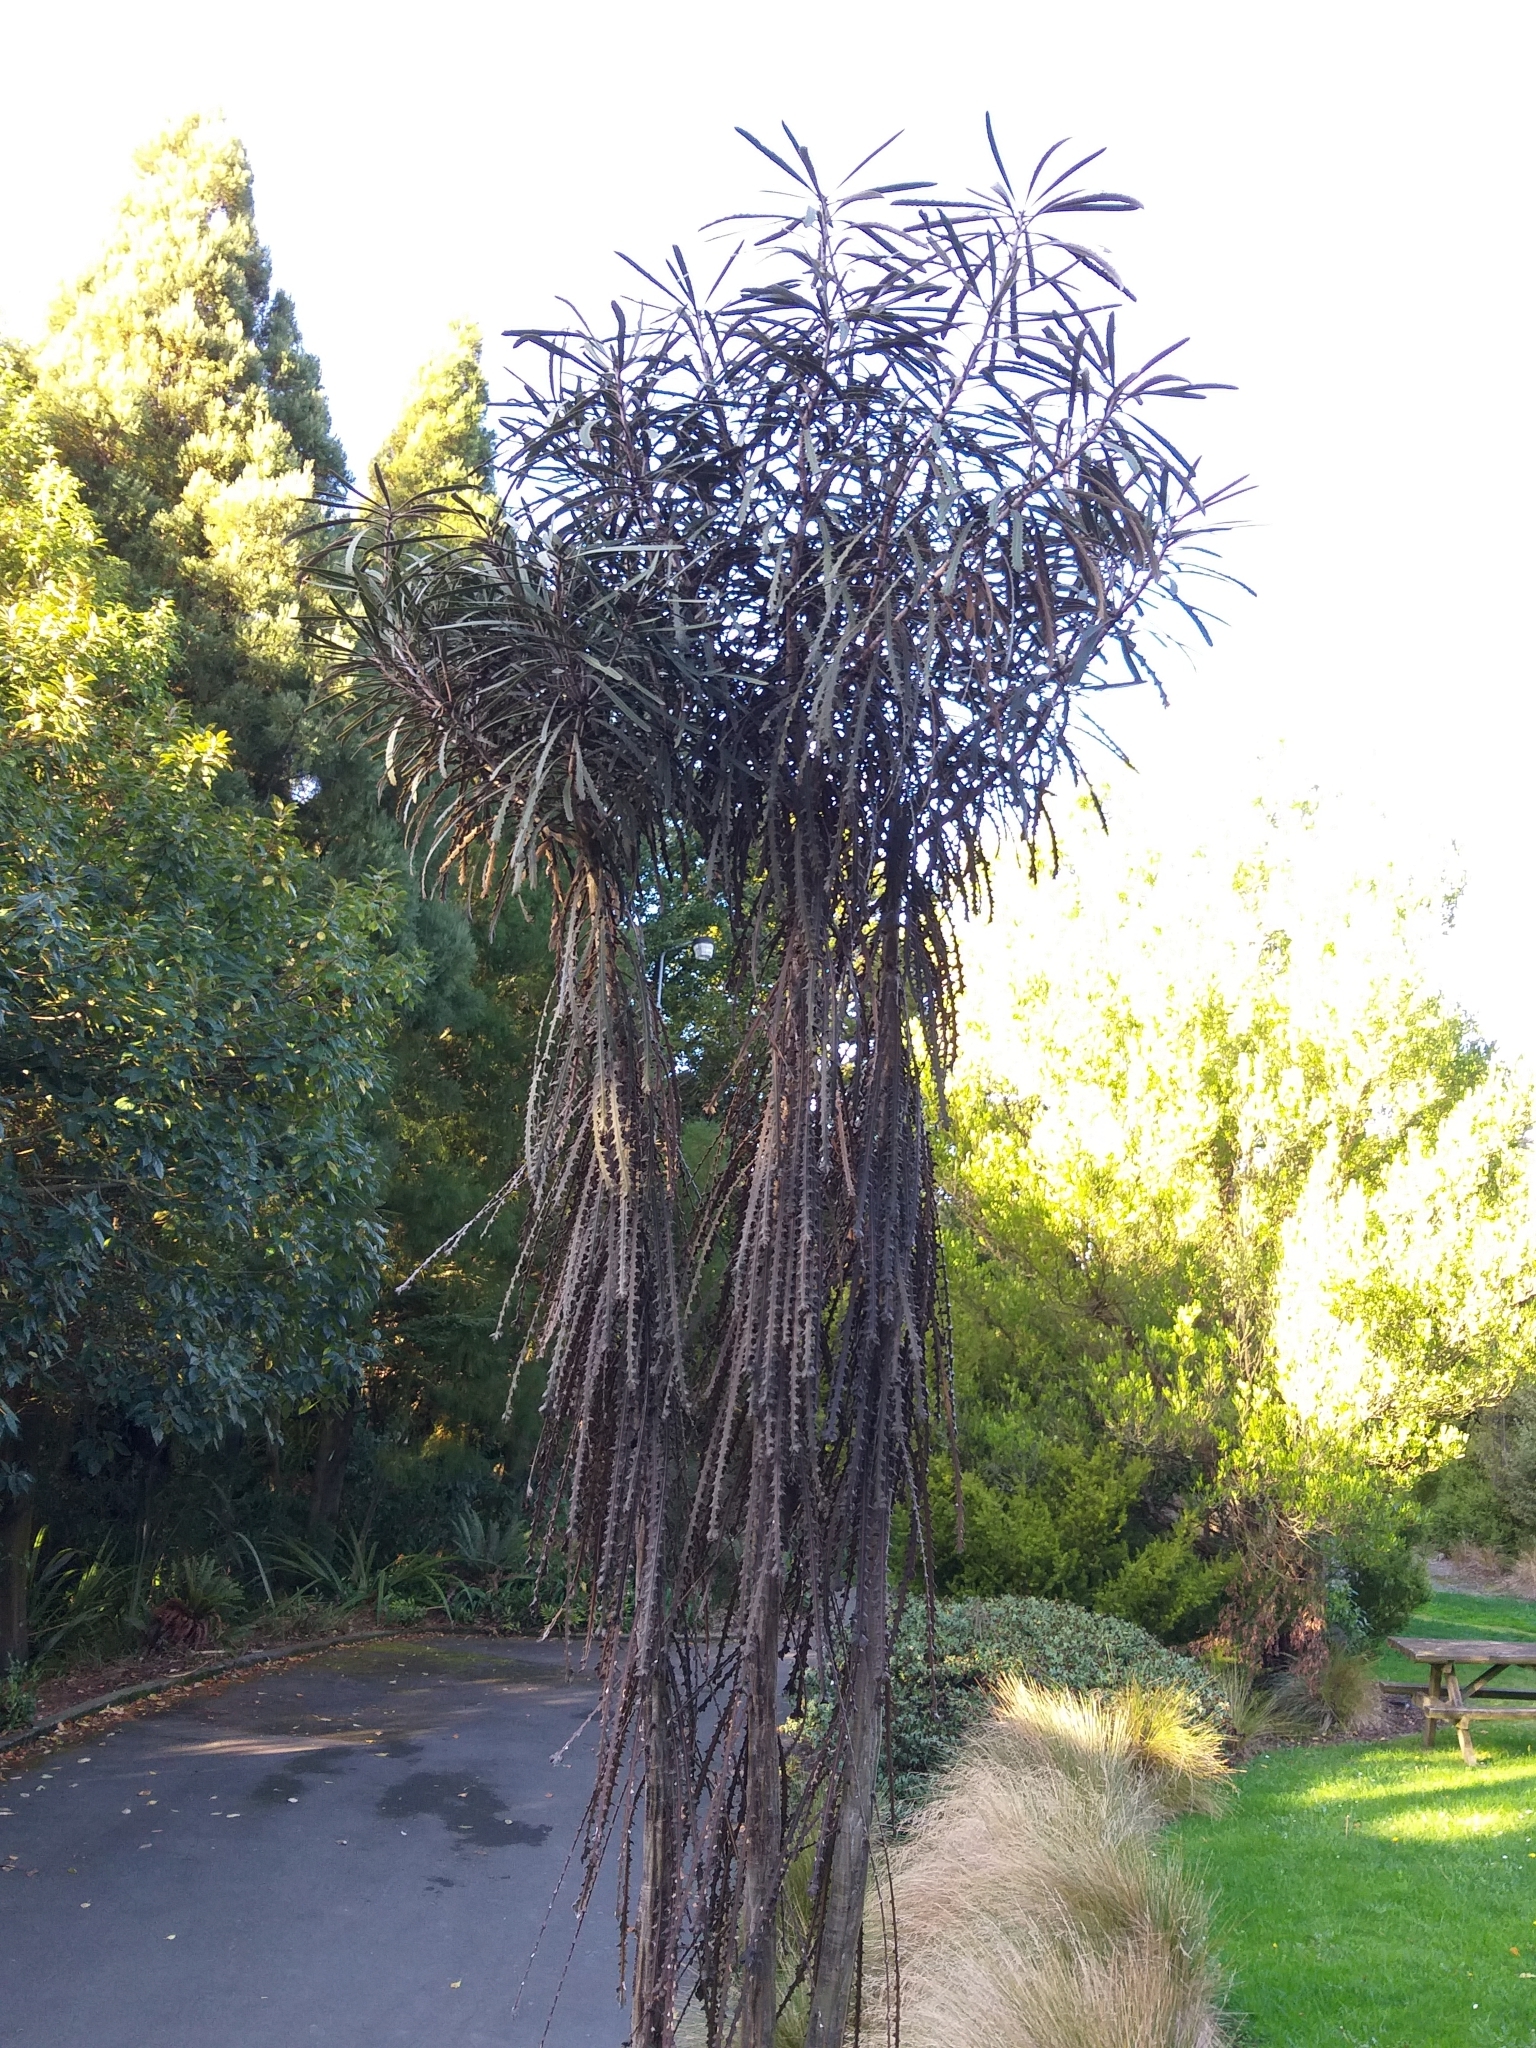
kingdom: Plantae
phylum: Tracheophyta
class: Magnoliopsida
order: Apiales
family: Araliaceae
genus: Pseudopanax
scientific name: Pseudopanax ferox
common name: Fierce lancewood
